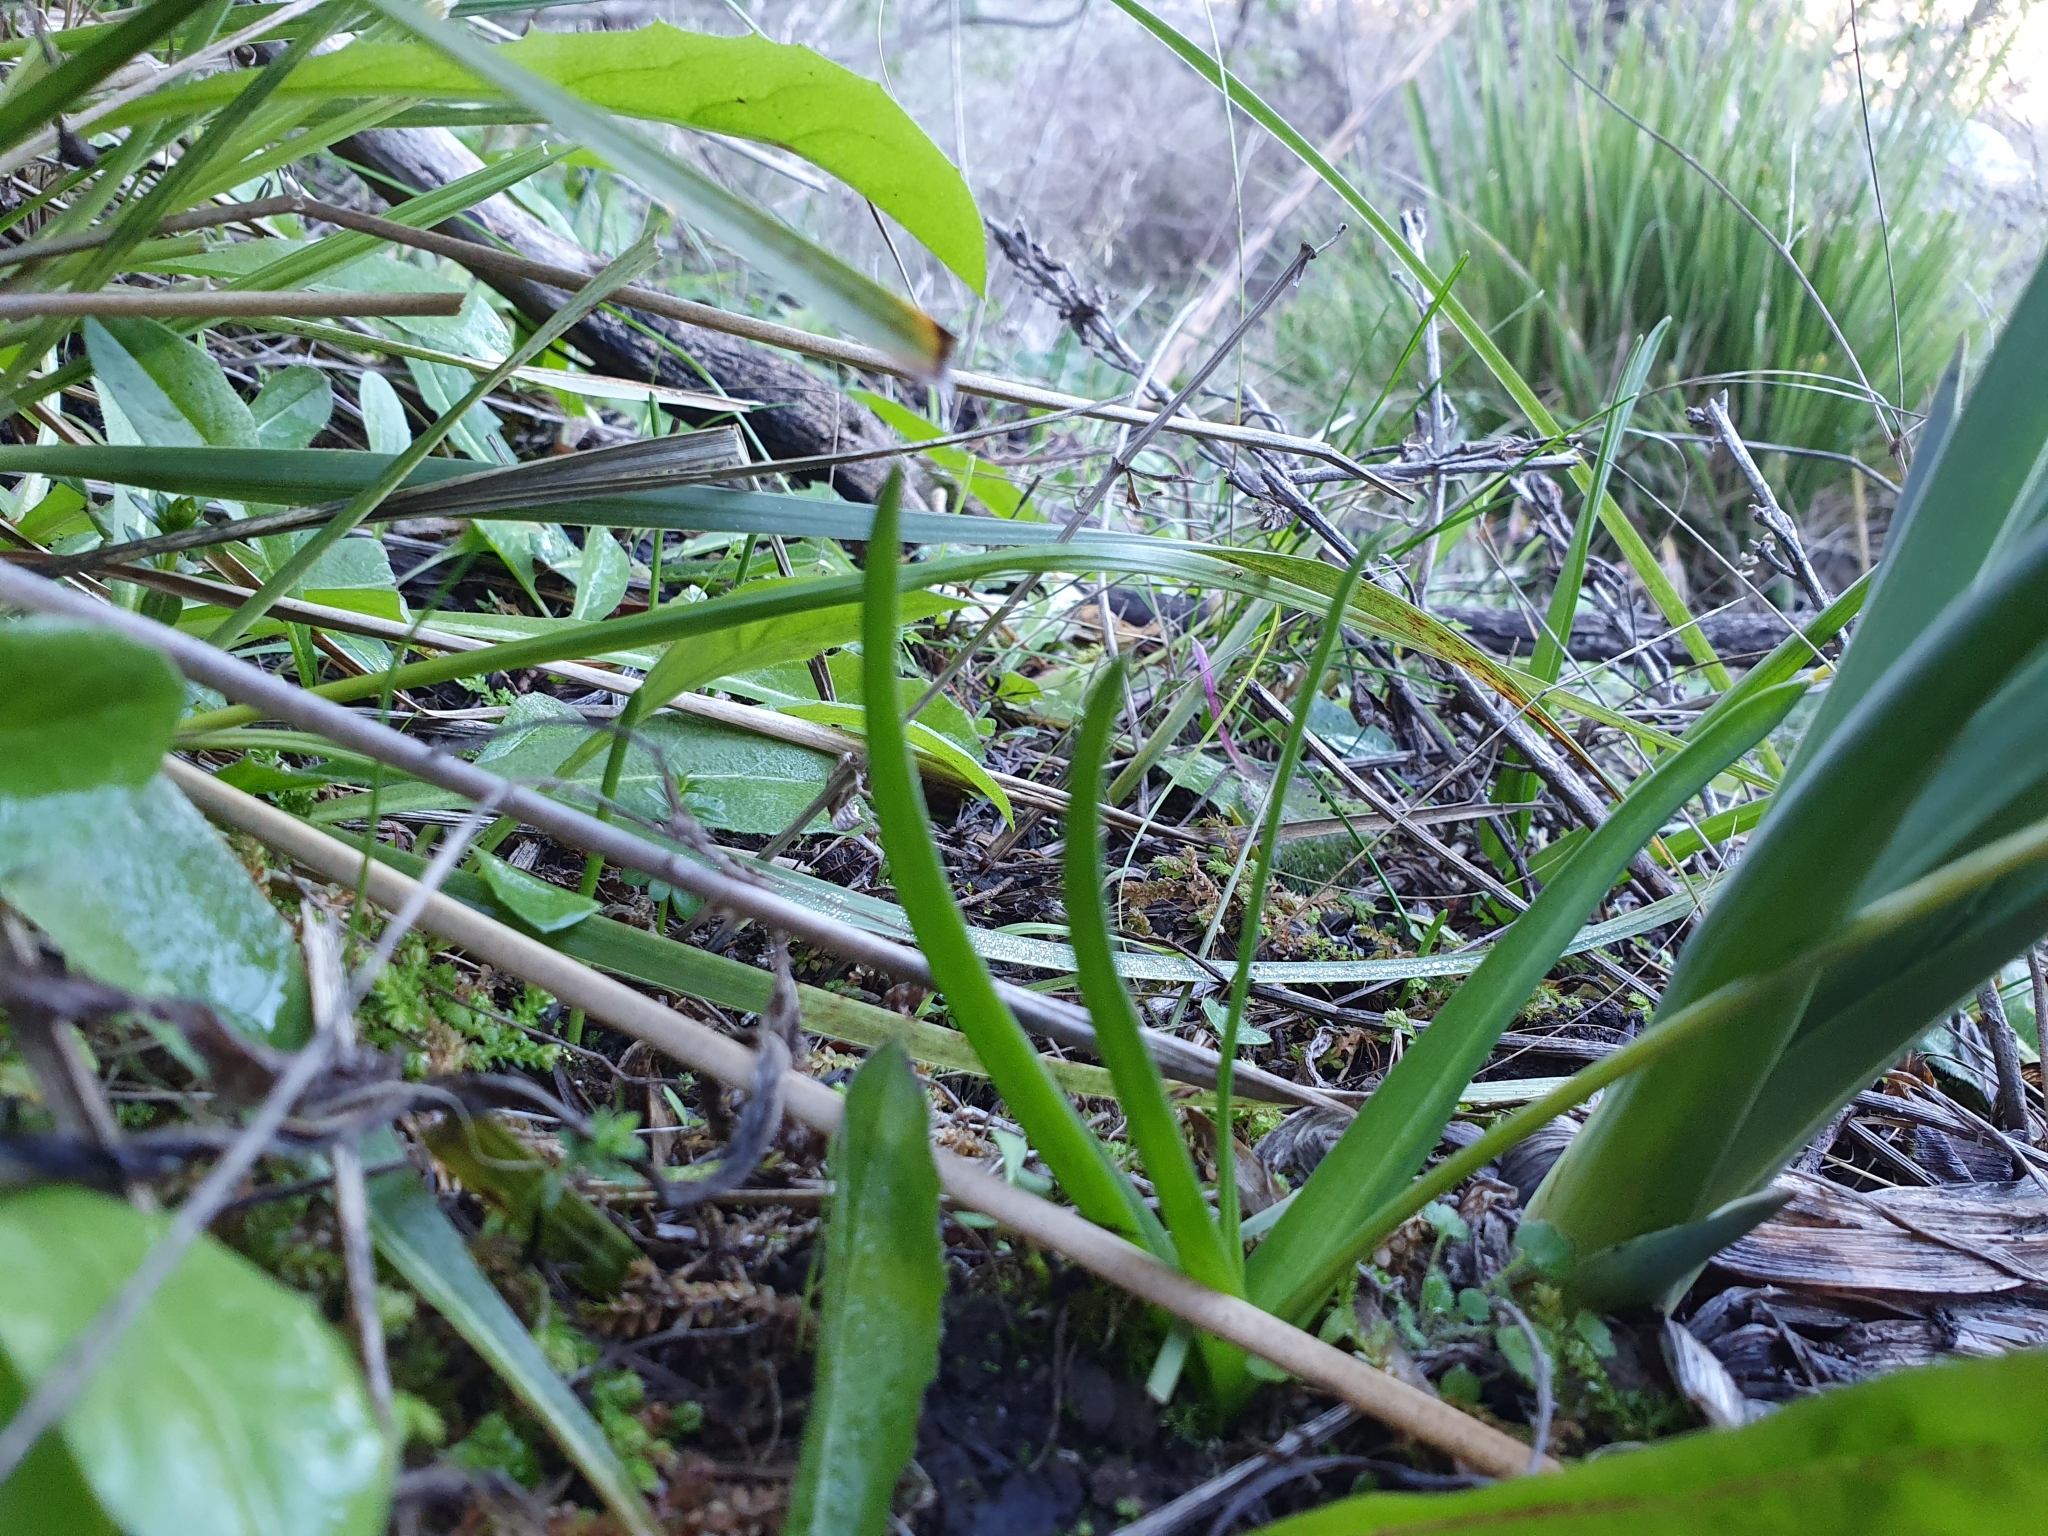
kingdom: Plantae
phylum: Tracheophyta
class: Liliopsida
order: Asparagales
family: Asparagaceae
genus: Barnardia
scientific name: Barnardia numidica
